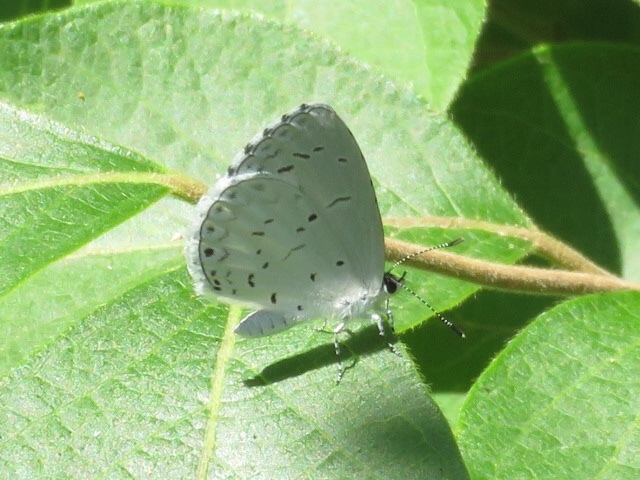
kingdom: Animalia
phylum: Arthropoda
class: Insecta
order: Lepidoptera
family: Lycaenidae
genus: Cyaniris
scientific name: Cyaniris neglecta
